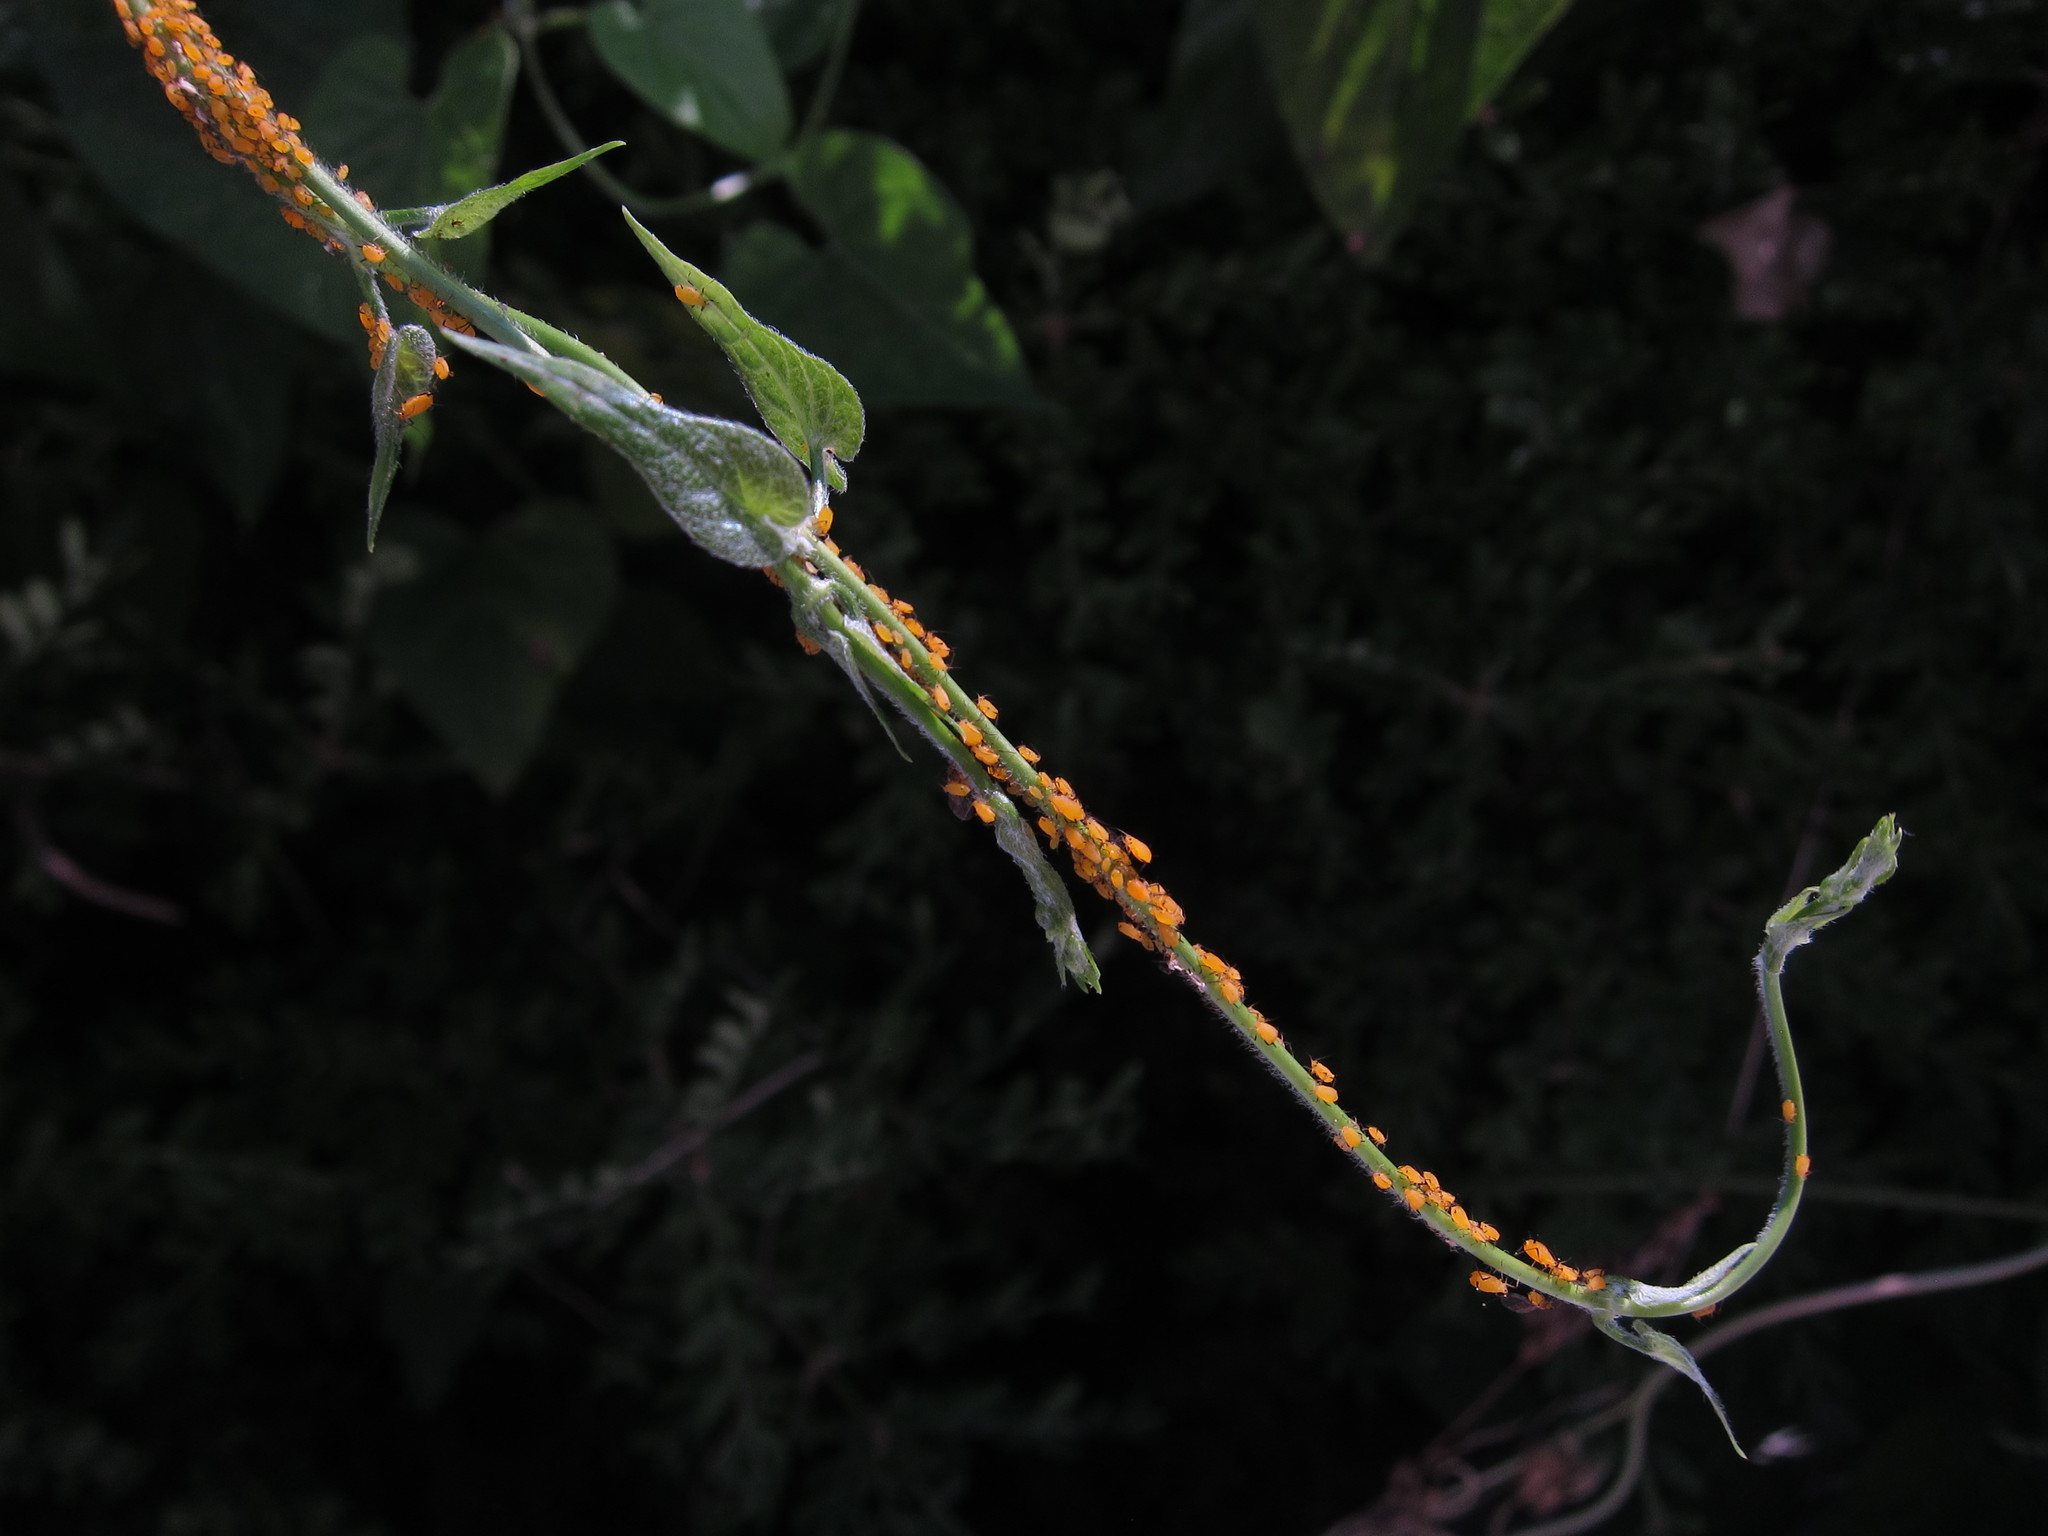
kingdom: Animalia
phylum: Arthropoda
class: Insecta
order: Hemiptera
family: Aphididae
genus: Aphis
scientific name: Aphis nerii
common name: Oleander aphid
